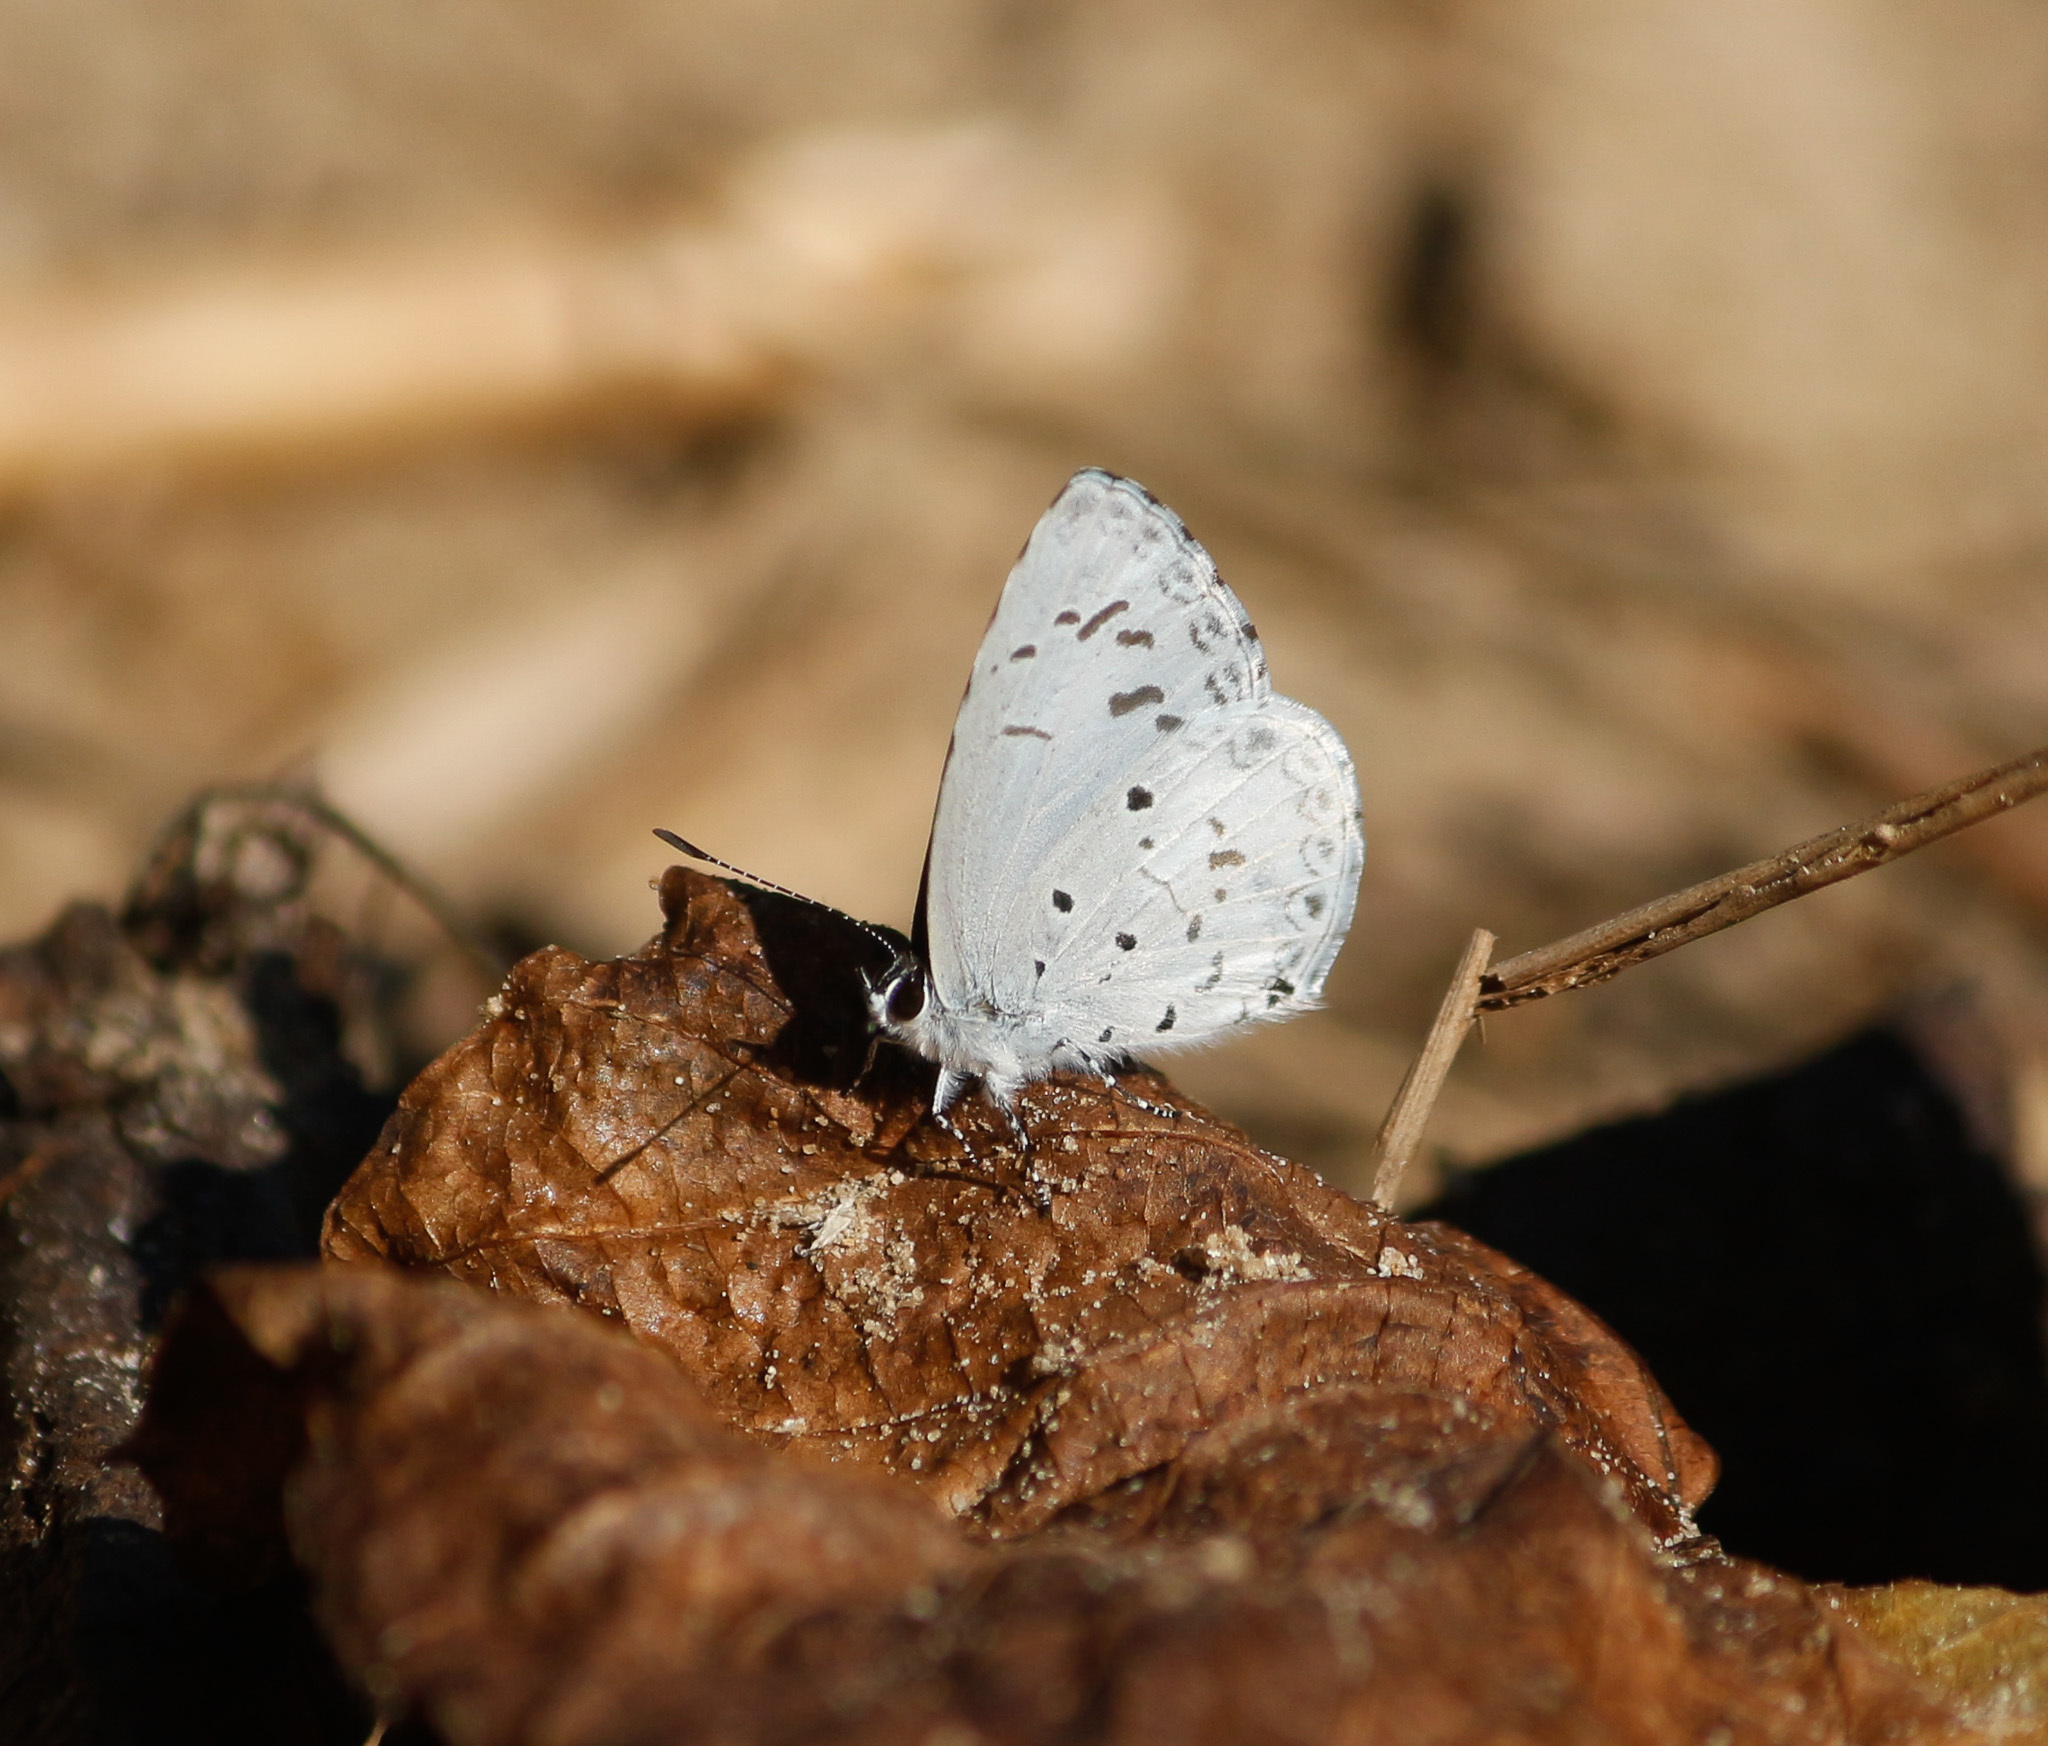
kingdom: Animalia
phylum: Arthropoda
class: Insecta
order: Lepidoptera
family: Lycaenidae
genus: Acytolepis
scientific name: Acytolepis puspa
